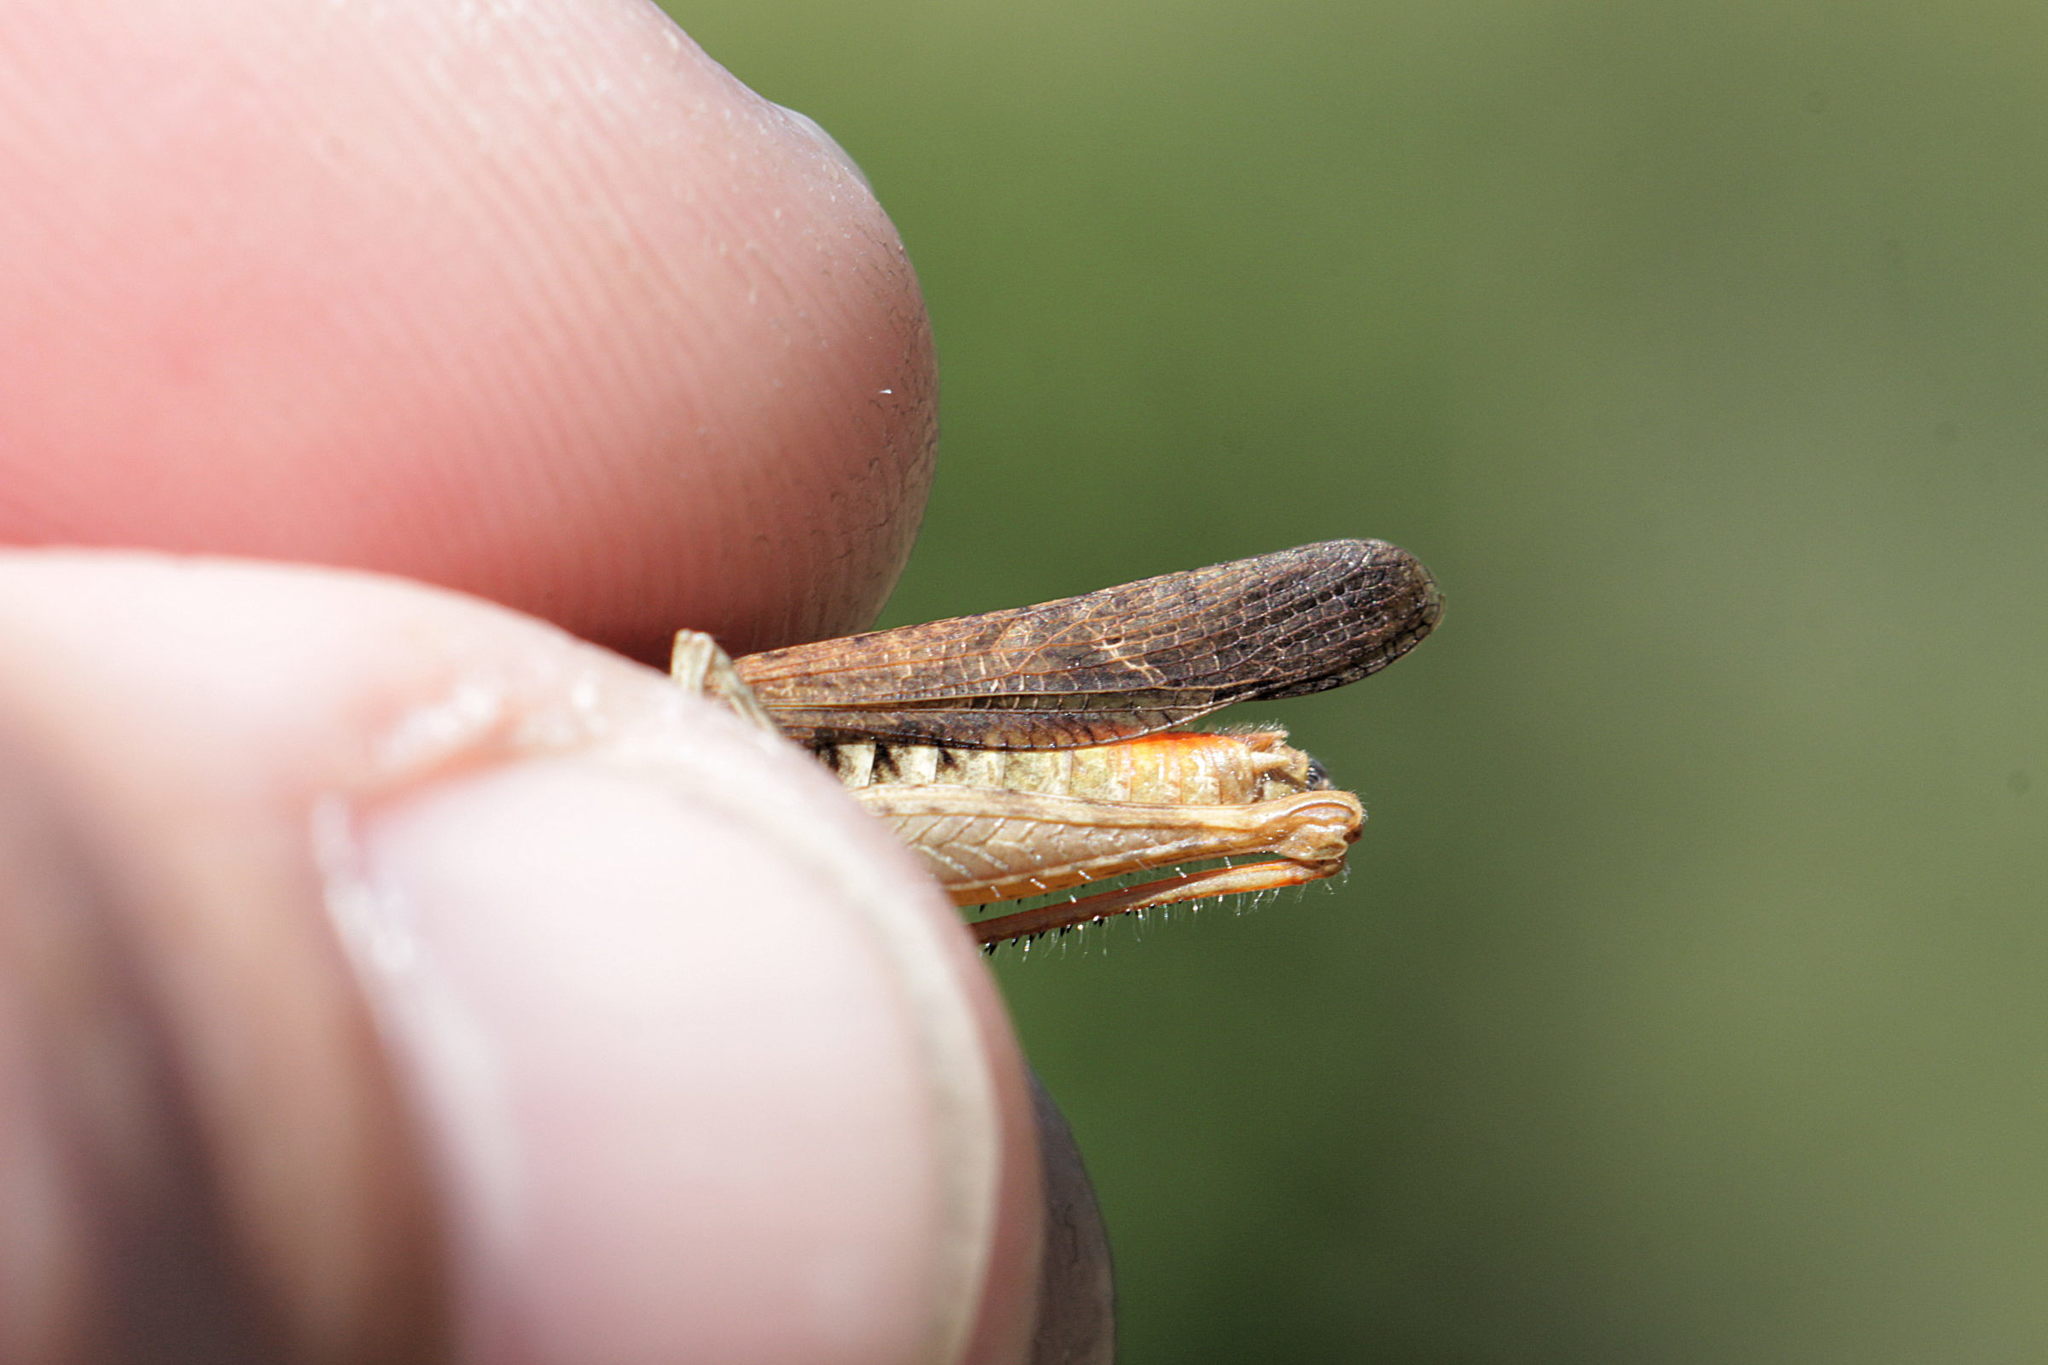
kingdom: Animalia
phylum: Arthropoda
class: Insecta
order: Orthoptera
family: Acrididae
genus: Chorthippus
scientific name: Chorthippus brunneus
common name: Field grasshopper
